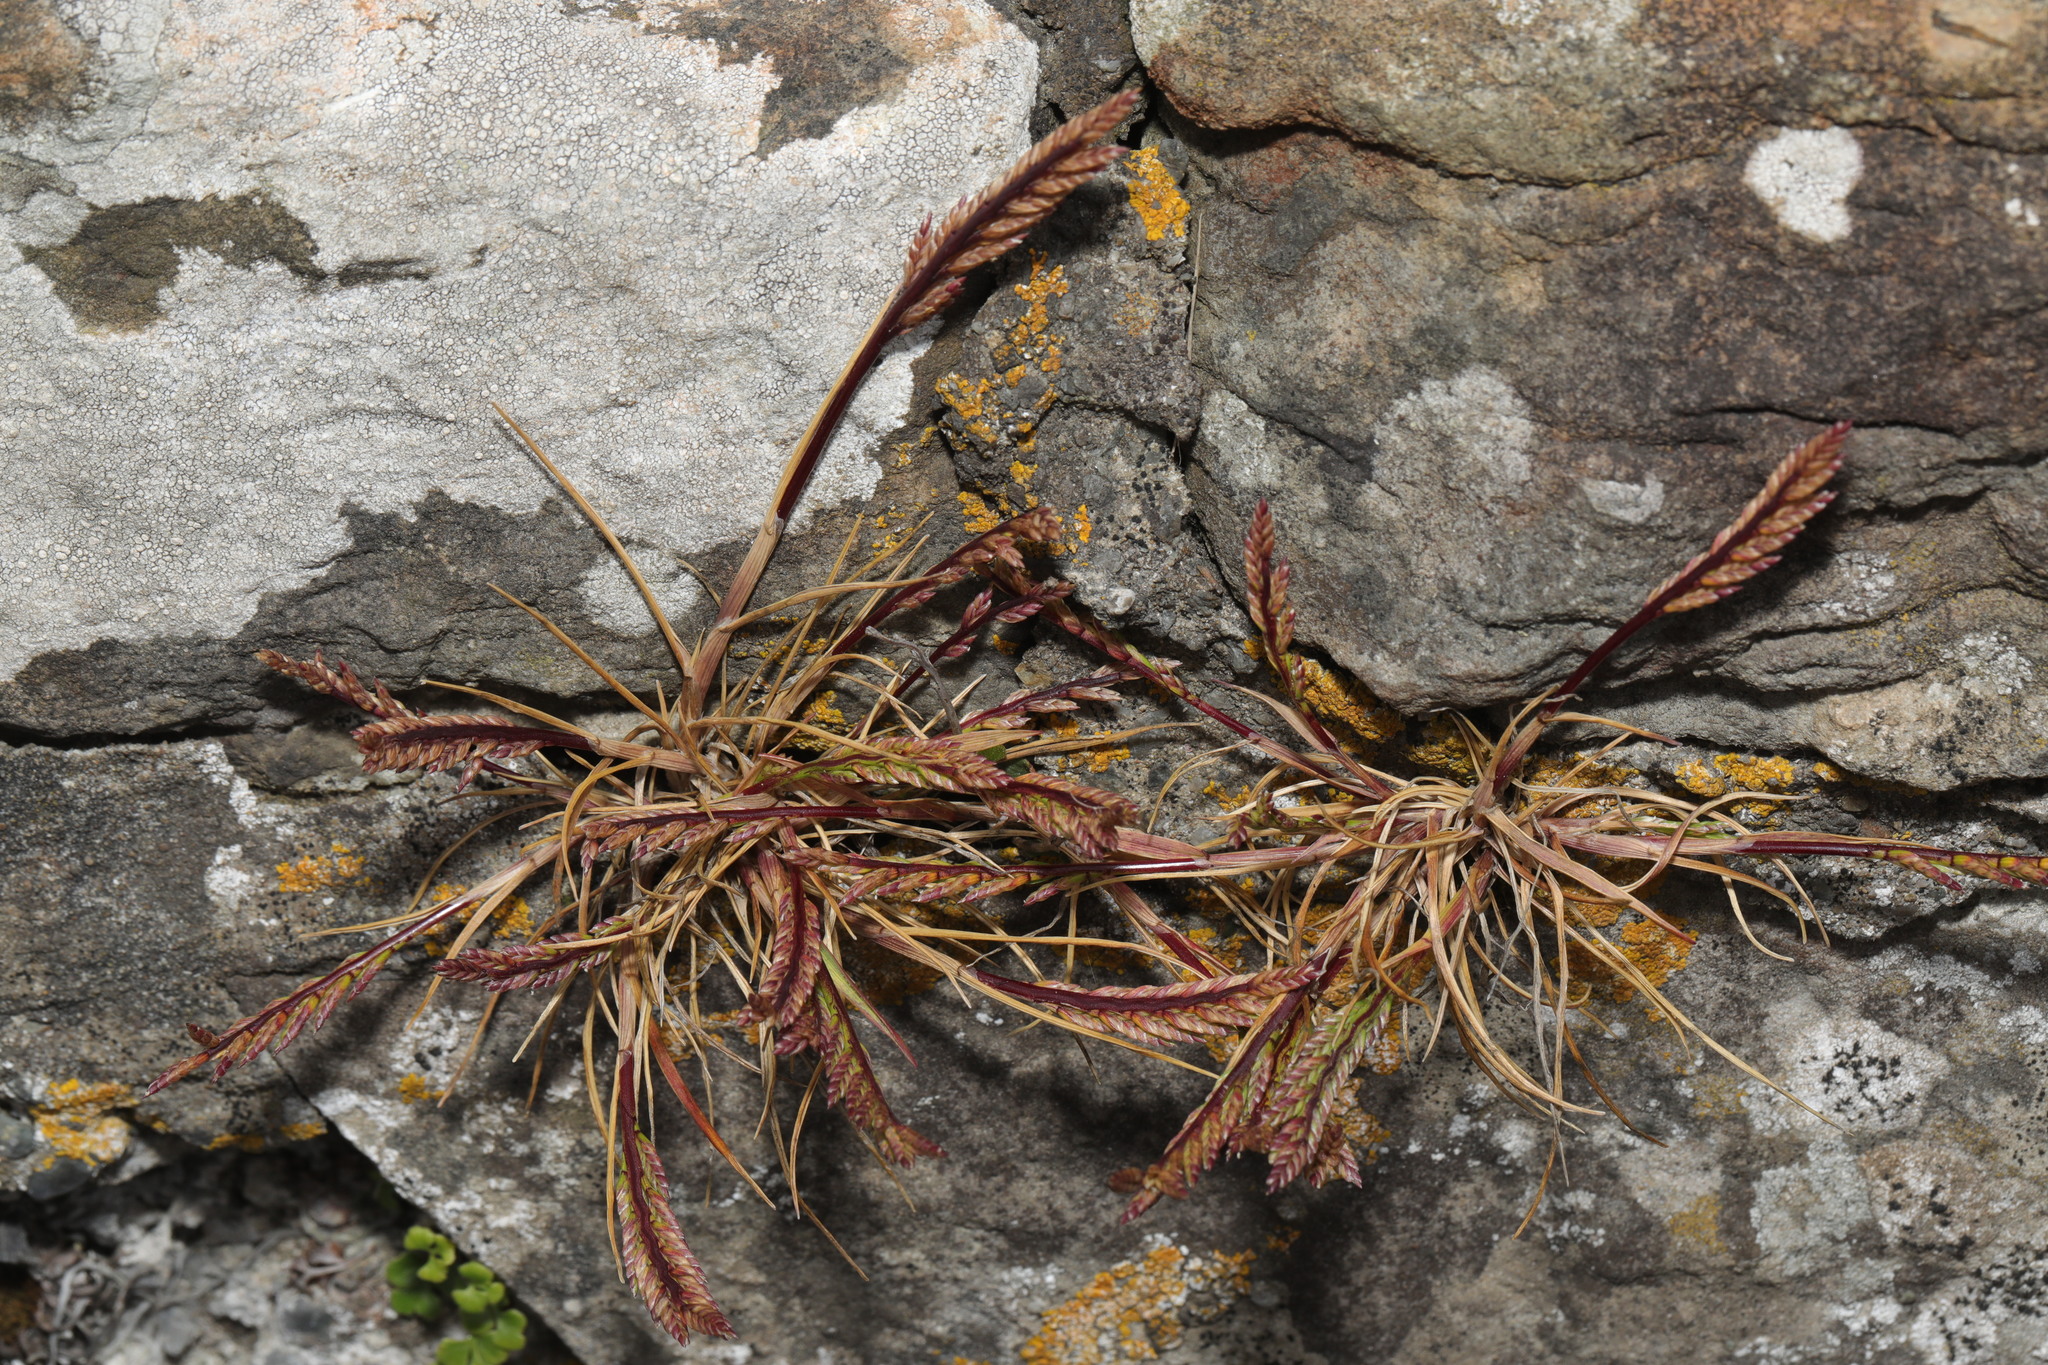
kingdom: Plantae
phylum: Tracheophyta
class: Liliopsida
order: Poales
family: Poaceae
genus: Catapodium
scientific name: Catapodium marinum
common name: Sea fern-grass
